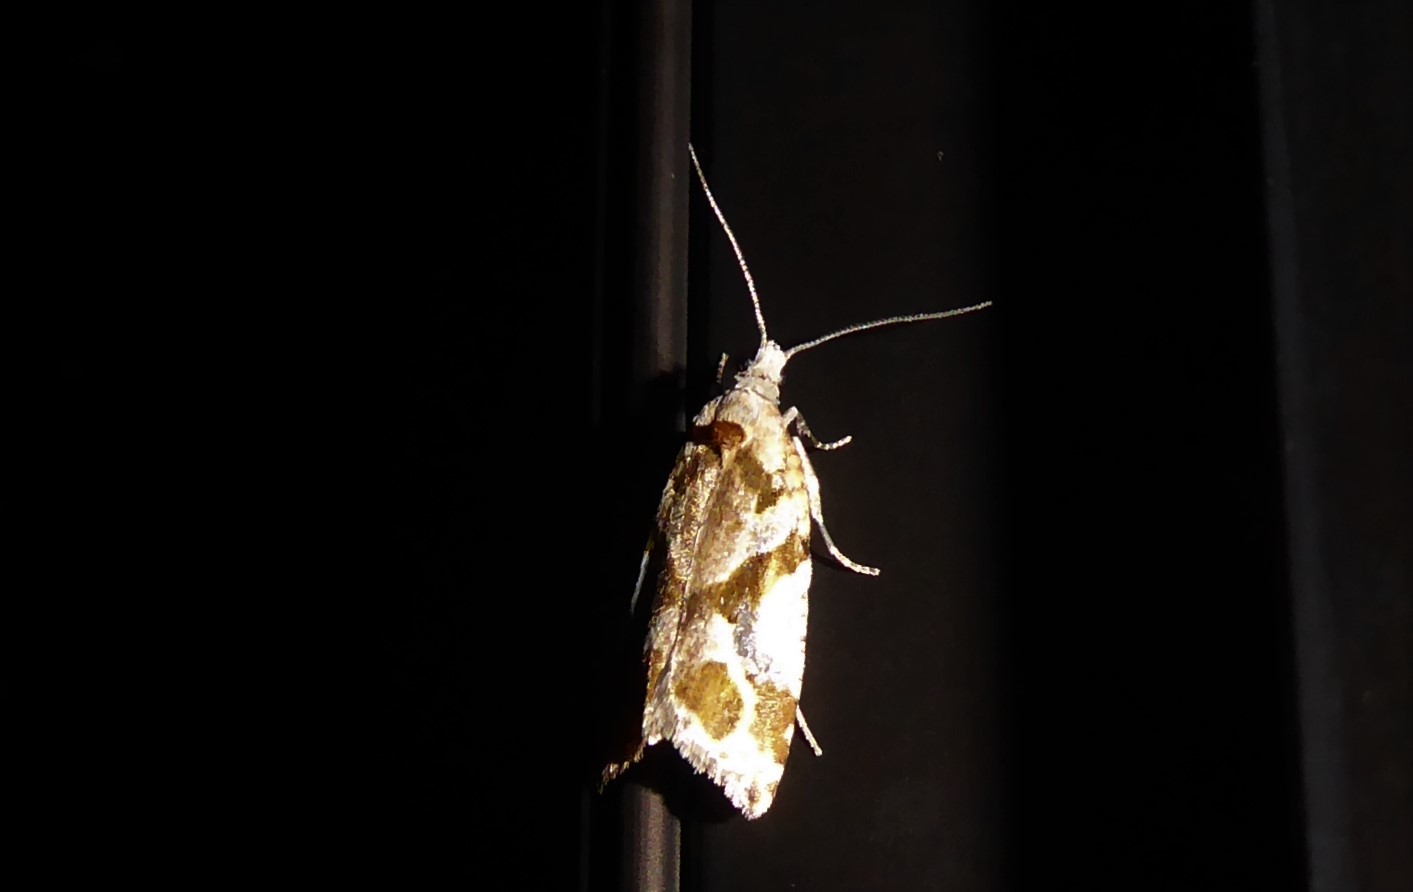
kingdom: Animalia
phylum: Arthropoda
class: Insecta
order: Lepidoptera
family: Tortricidae
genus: Pyrgotis
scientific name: Pyrgotis plagiatana
